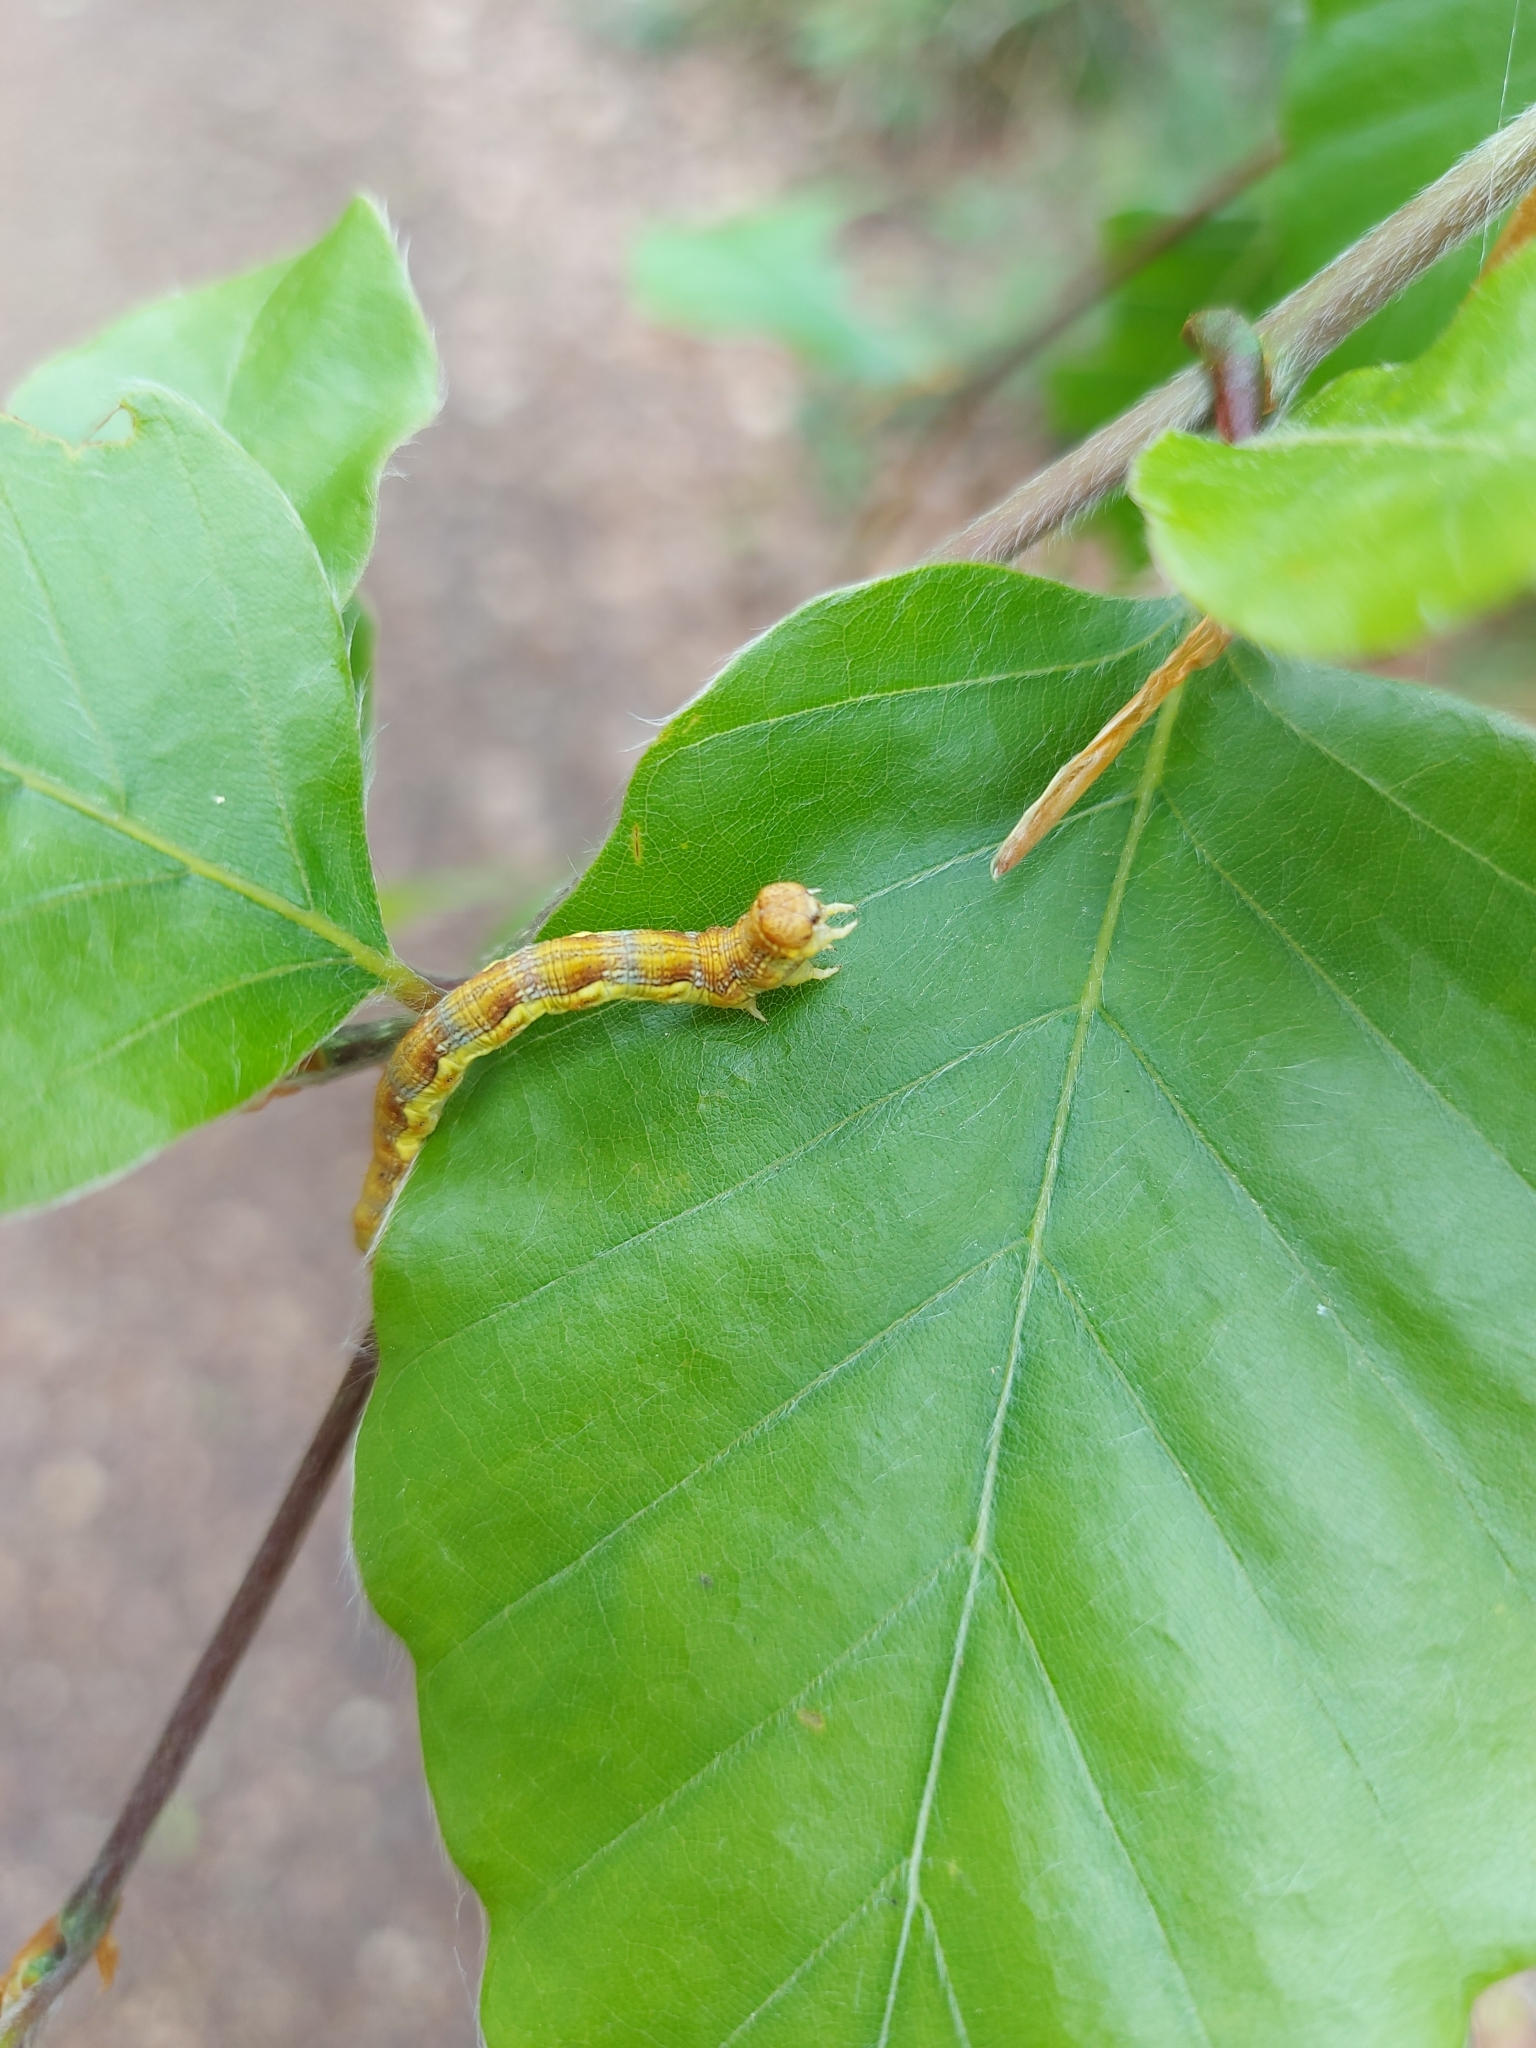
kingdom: Animalia
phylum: Arthropoda
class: Insecta
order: Lepidoptera
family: Geometridae
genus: Erannis
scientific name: Erannis defoliaria
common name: Mottled umber
